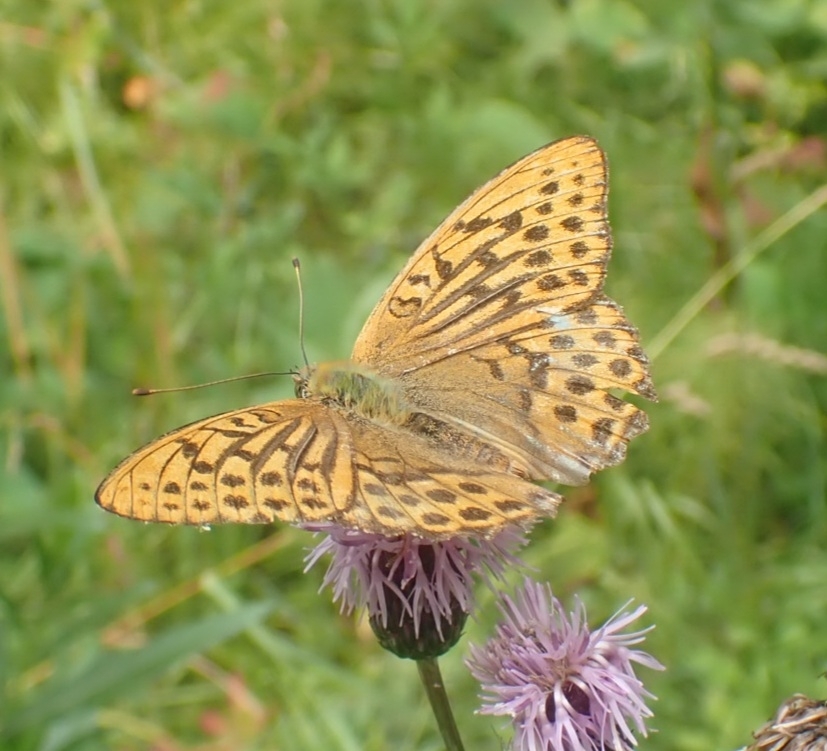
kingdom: Animalia
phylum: Arthropoda
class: Insecta
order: Lepidoptera
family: Nymphalidae
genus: Argynnis
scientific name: Argynnis paphia
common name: Silver-washed fritillary
